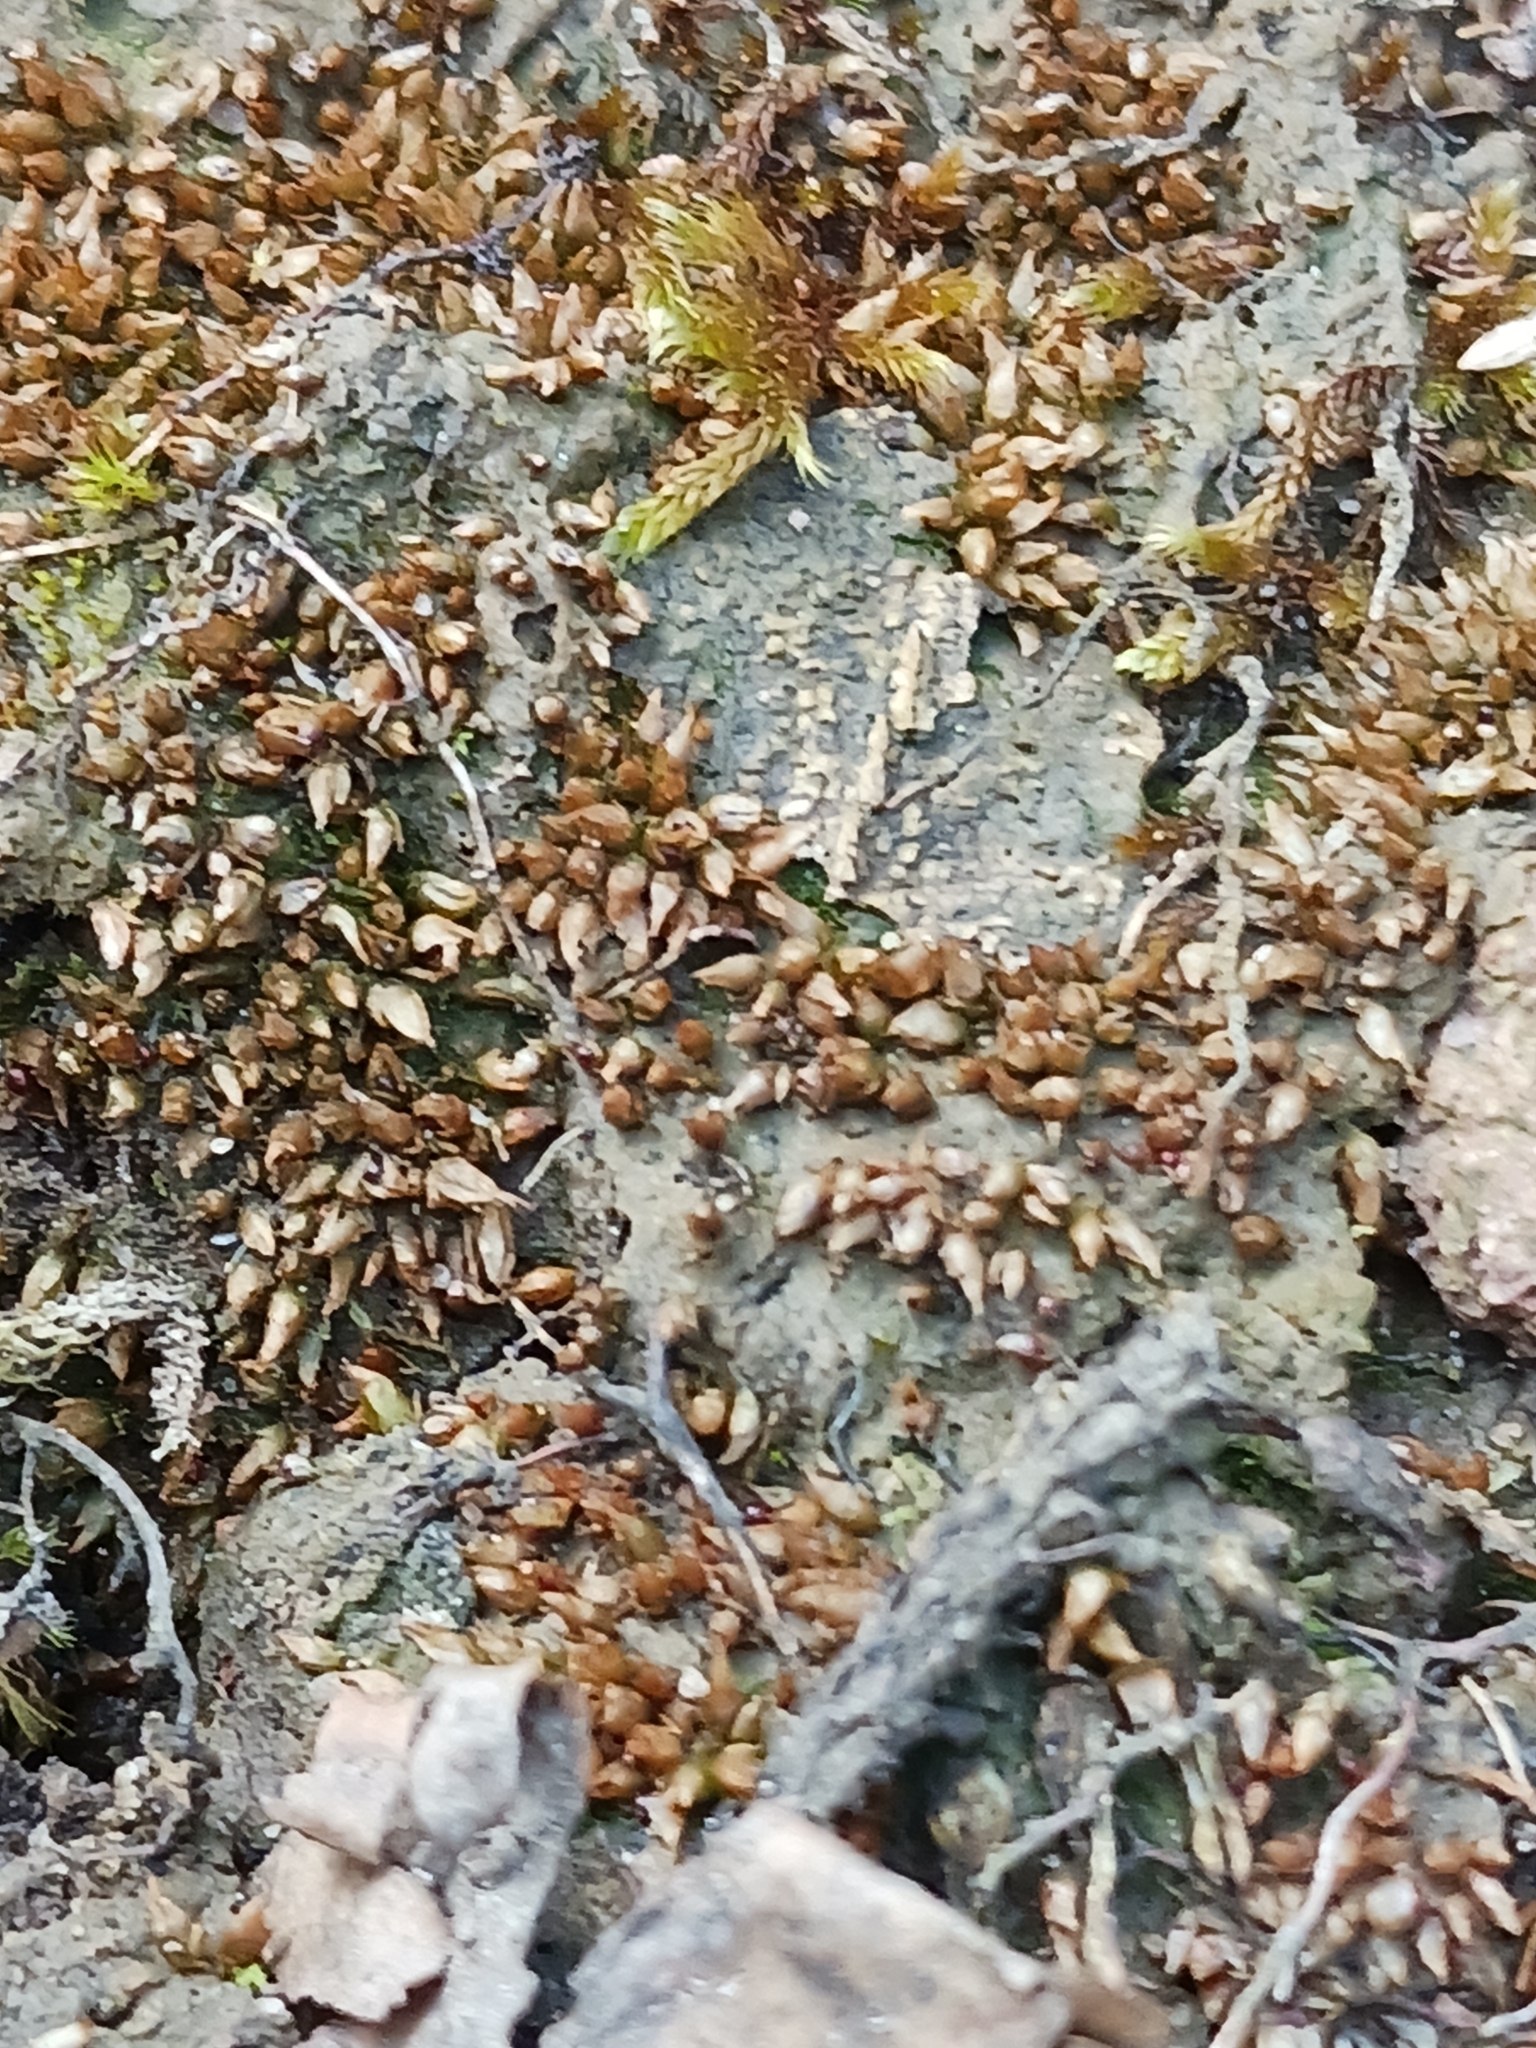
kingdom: Plantae
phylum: Bryophyta
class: Bryopsida
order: Pottiales
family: Pottiaceae
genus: Acaulon
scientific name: Acaulon muticum
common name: Rounded pygmy-moss
